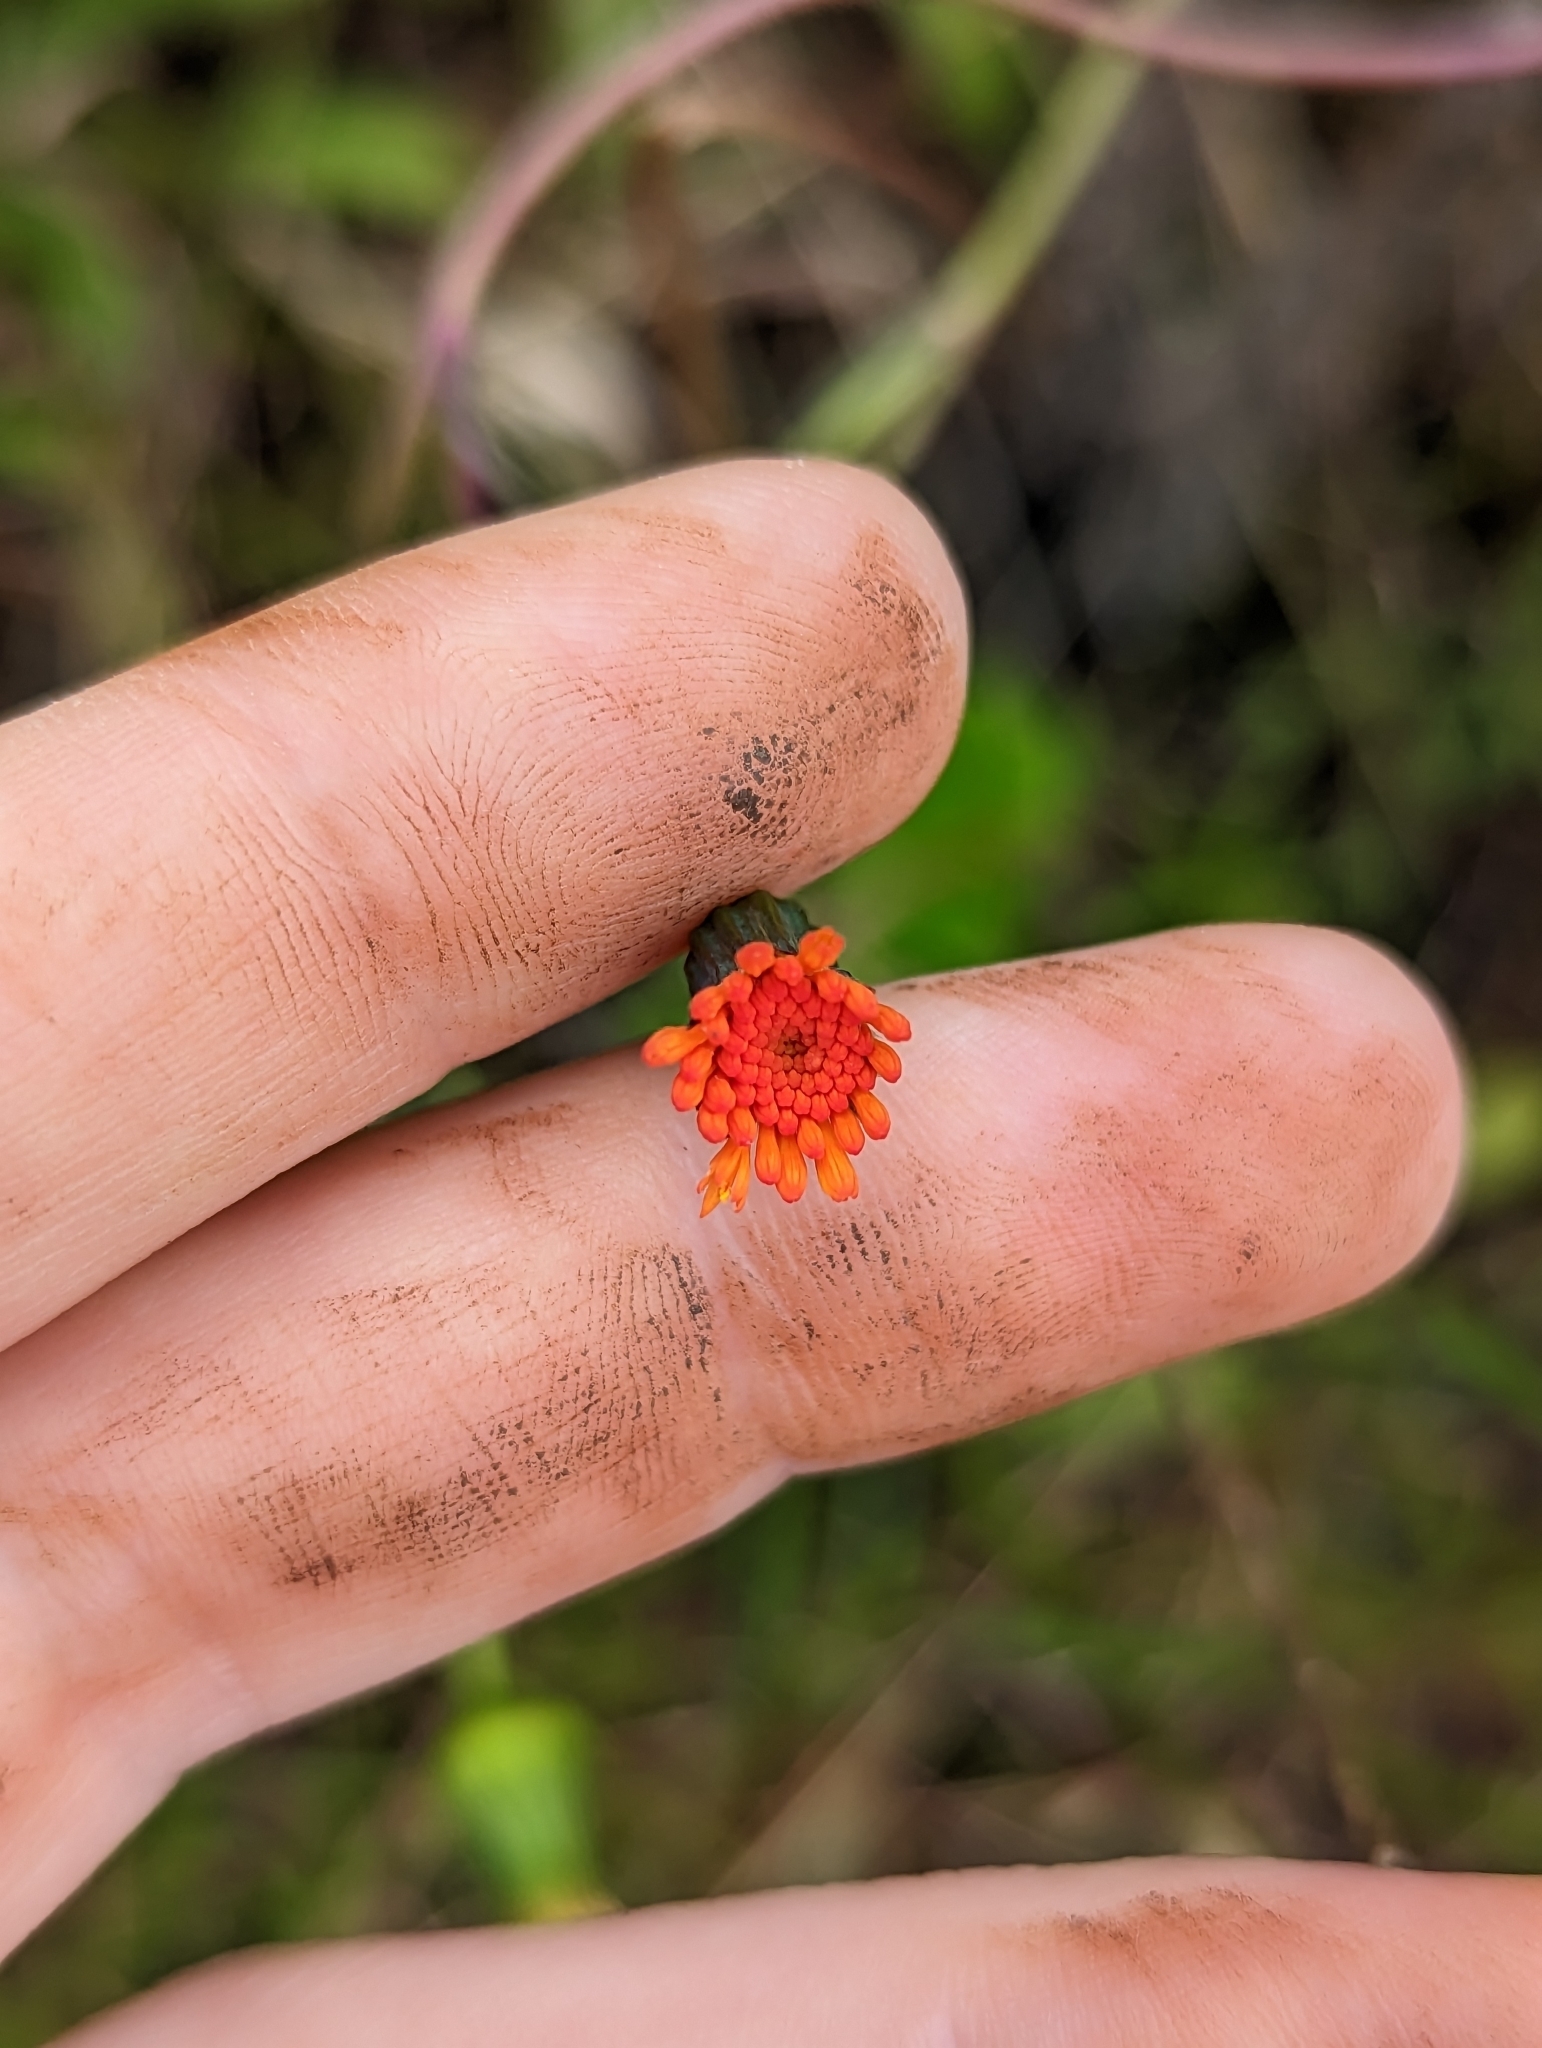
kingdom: Plantae
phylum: Tracheophyta
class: Magnoliopsida
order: Asterales
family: Asteraceae
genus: Emilia
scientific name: Emilia fosbergii
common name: Florida tasselflower
